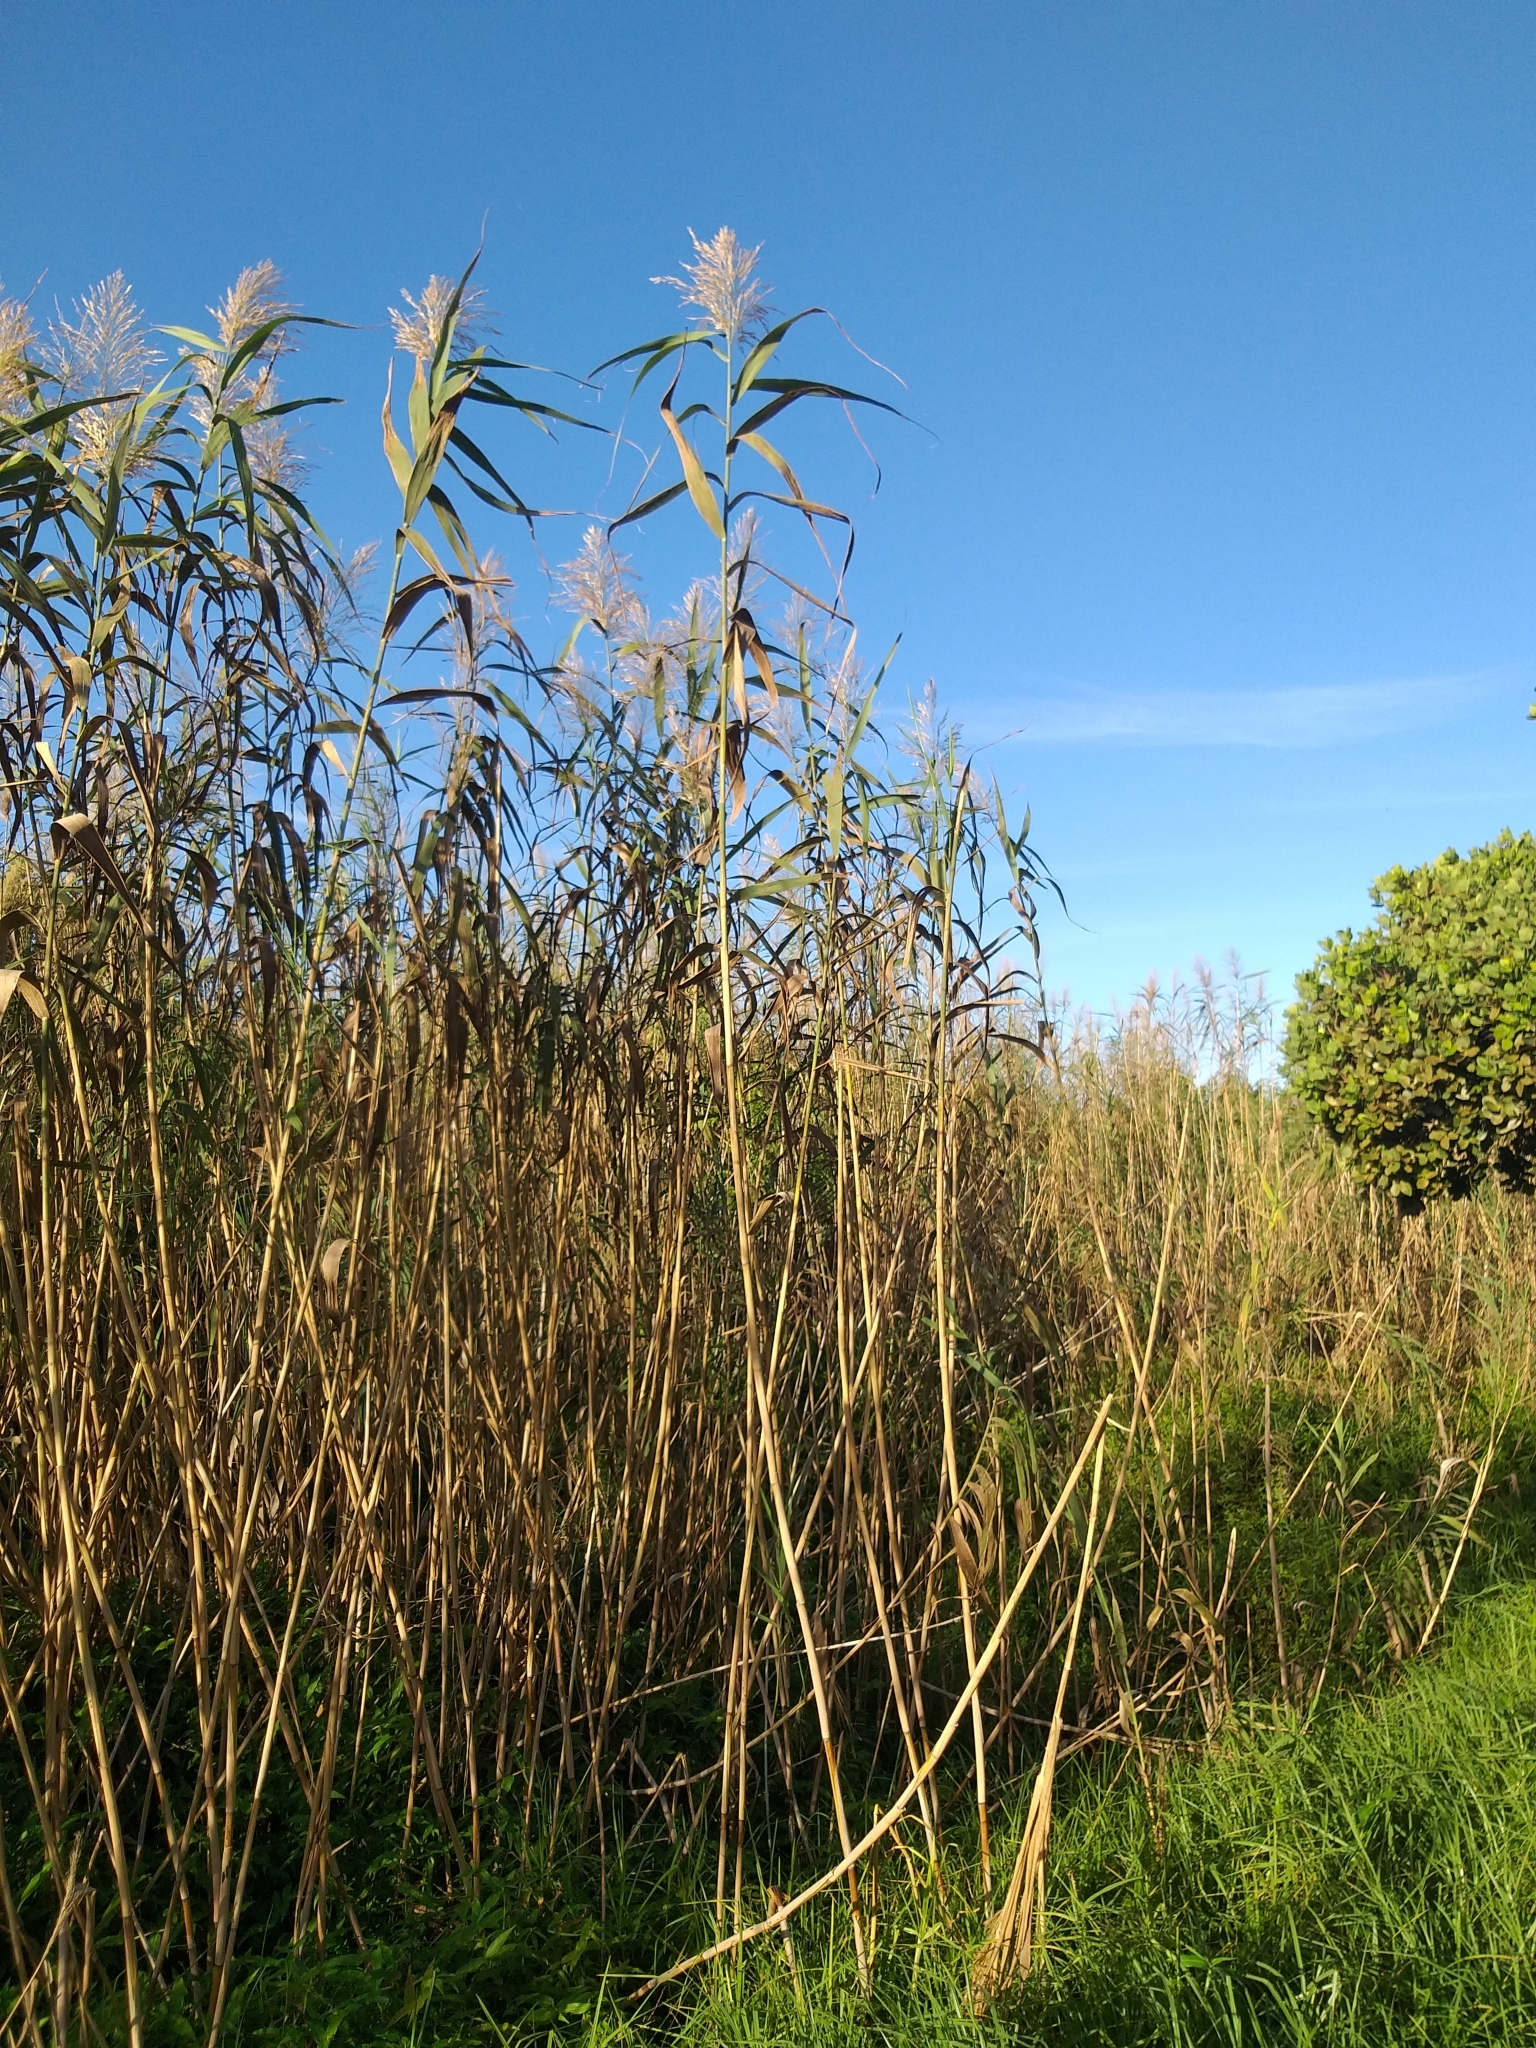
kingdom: Plantae
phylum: Tracheophyta
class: Liliopsida
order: Poales
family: Poaceae
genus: Phragmites
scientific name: Phragmites australis
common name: Common reed
